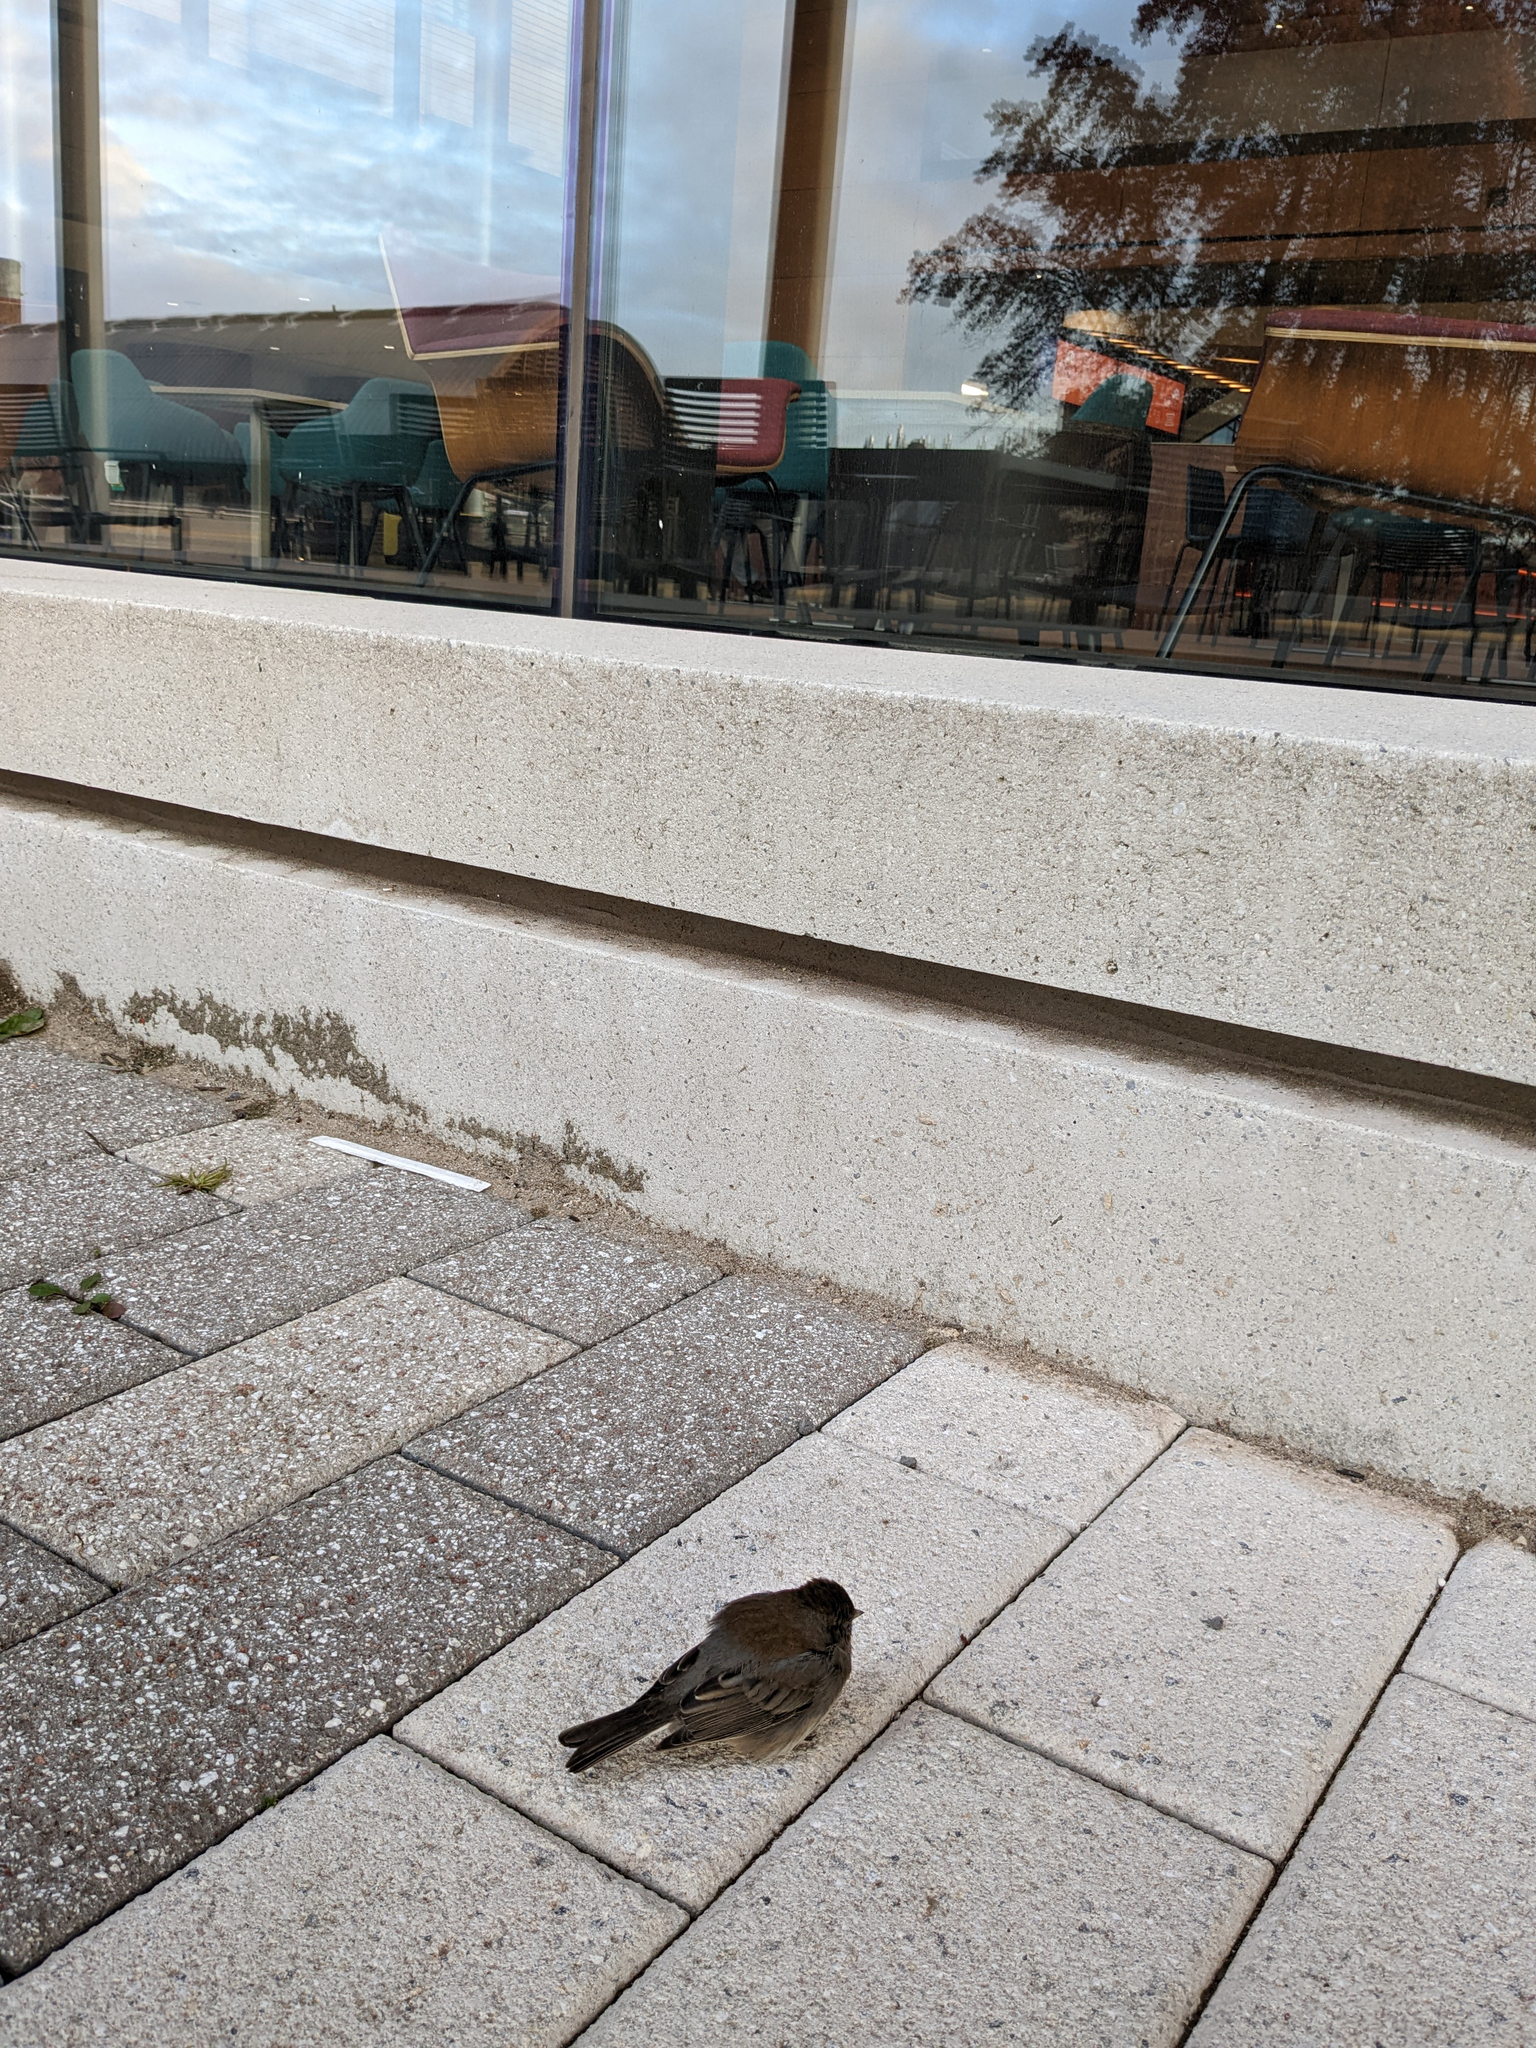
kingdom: Animalia
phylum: Chordata
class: Aves
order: Passeriformes
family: Passerellidae
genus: Junco
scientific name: Junco hyemalis
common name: Dark-eyed junco
